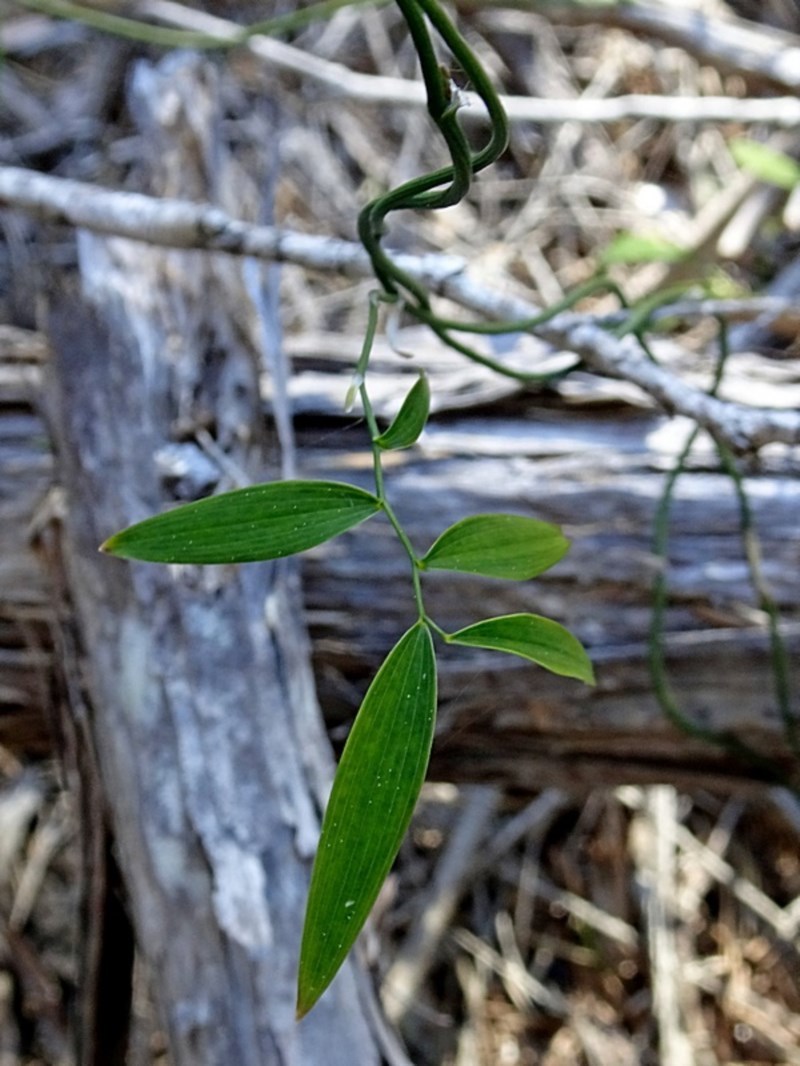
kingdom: Plantae
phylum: Tracheophyta
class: Liliopsida
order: Asparagales
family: Asparagaceae
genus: Eustrephus
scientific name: Eustrephus latifolius
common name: Orangevine
